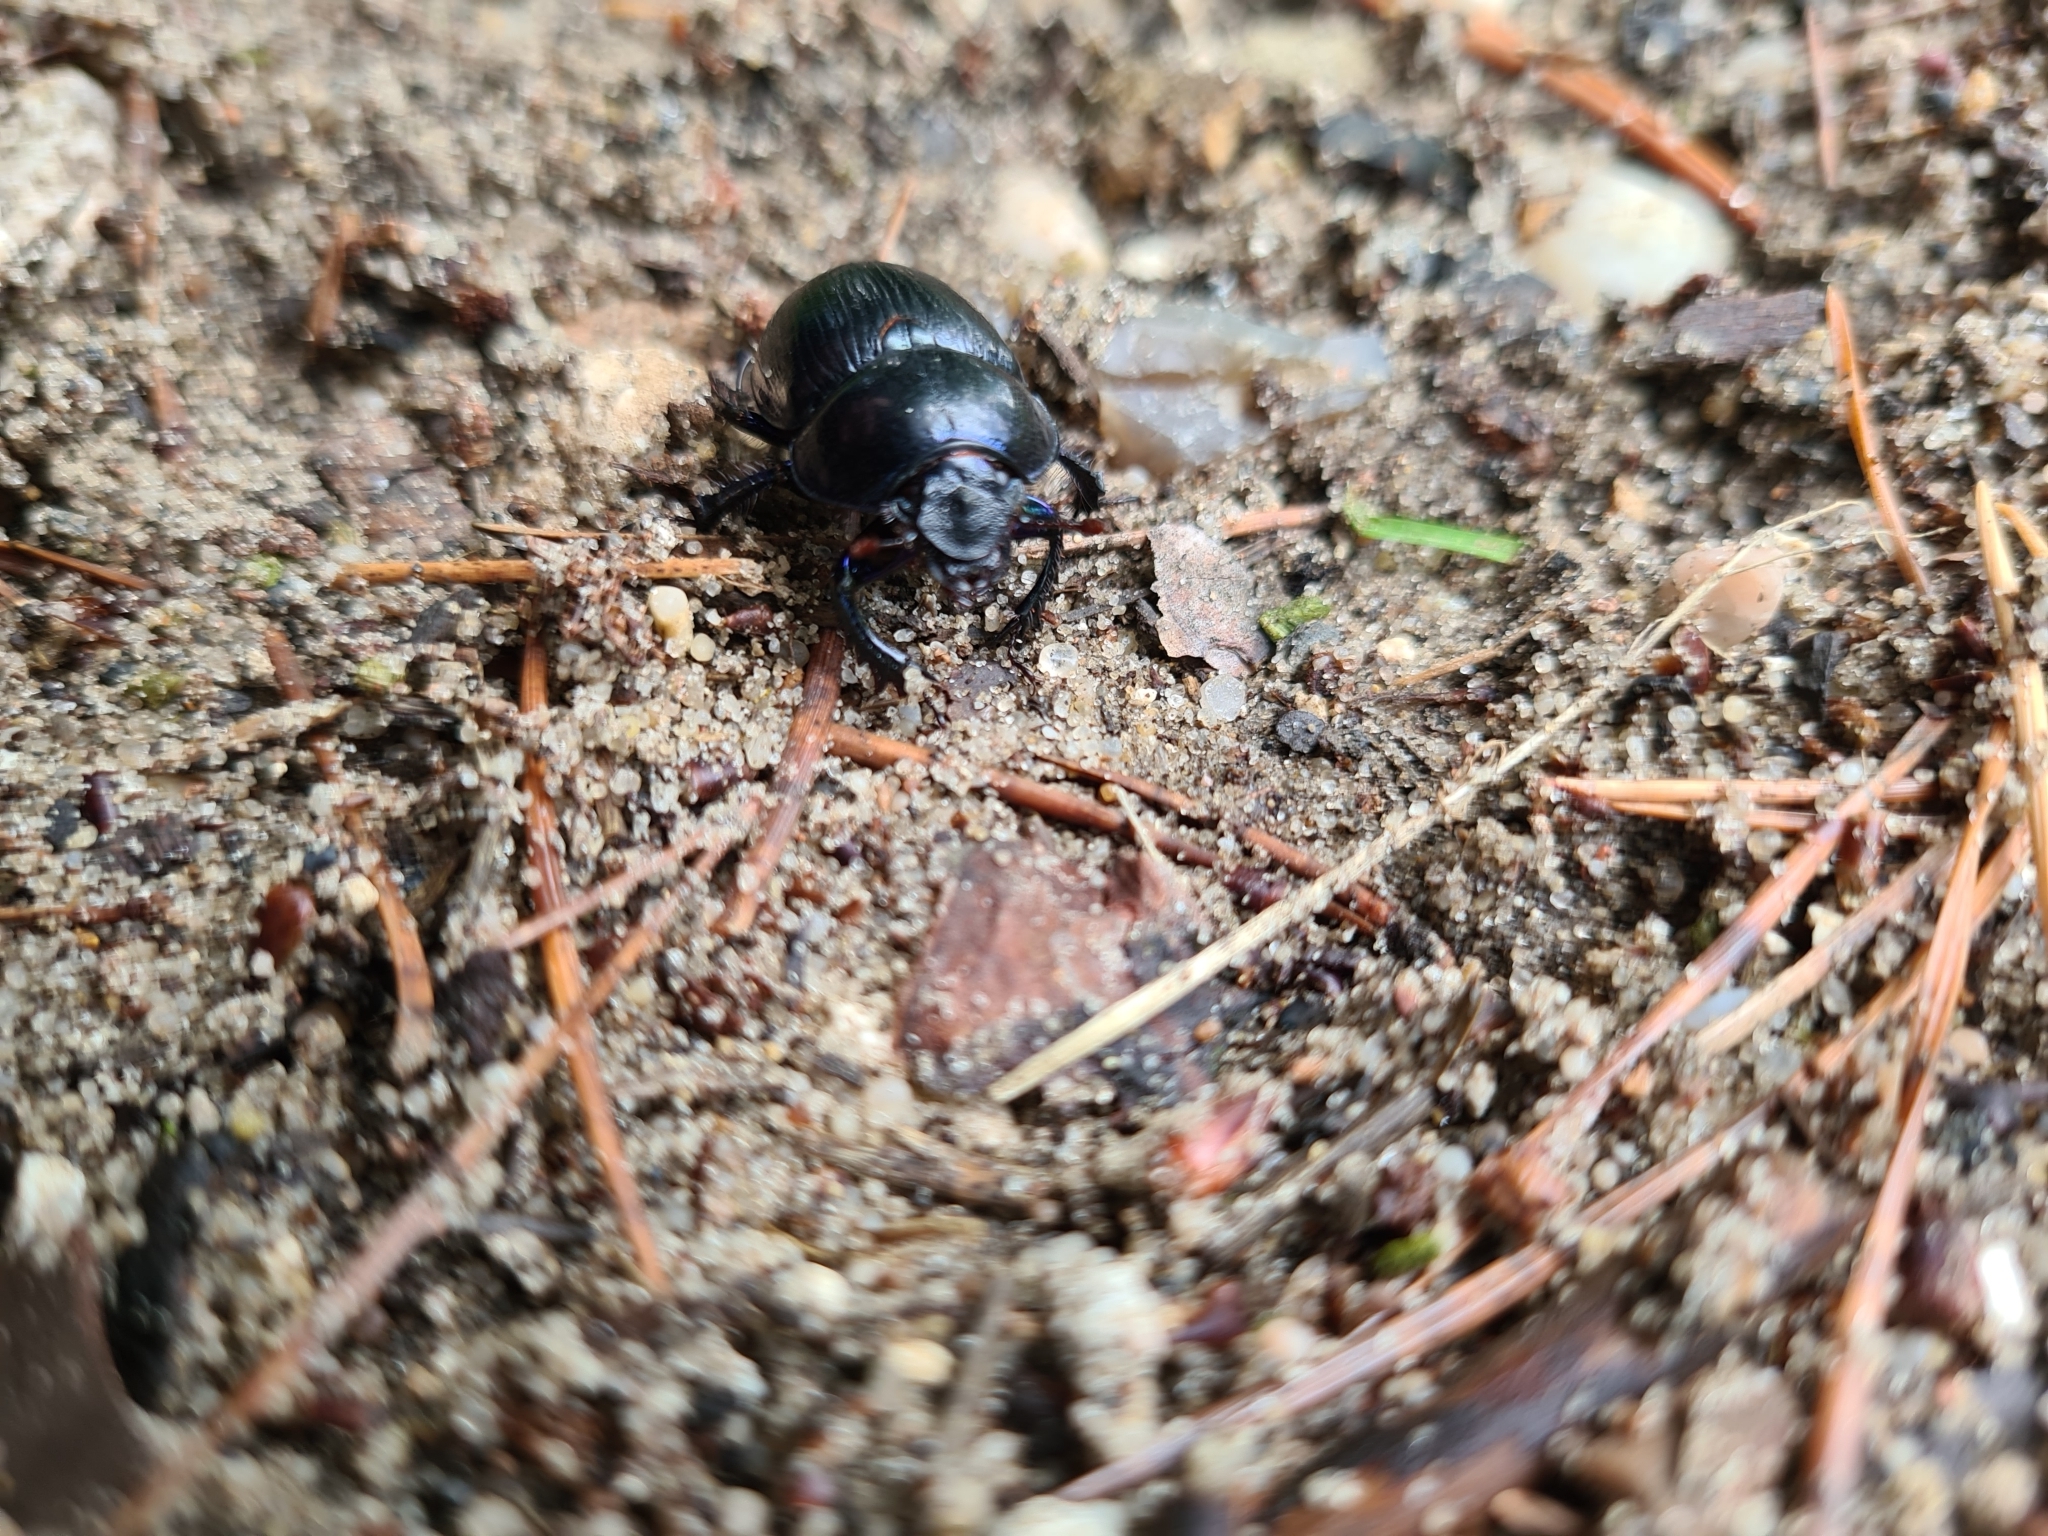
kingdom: Animalia
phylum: Arthropoda
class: Insecta
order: Coleoptera
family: Geotrupidae
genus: Anoplotrupes
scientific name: Anoplotrupes stercorosus
